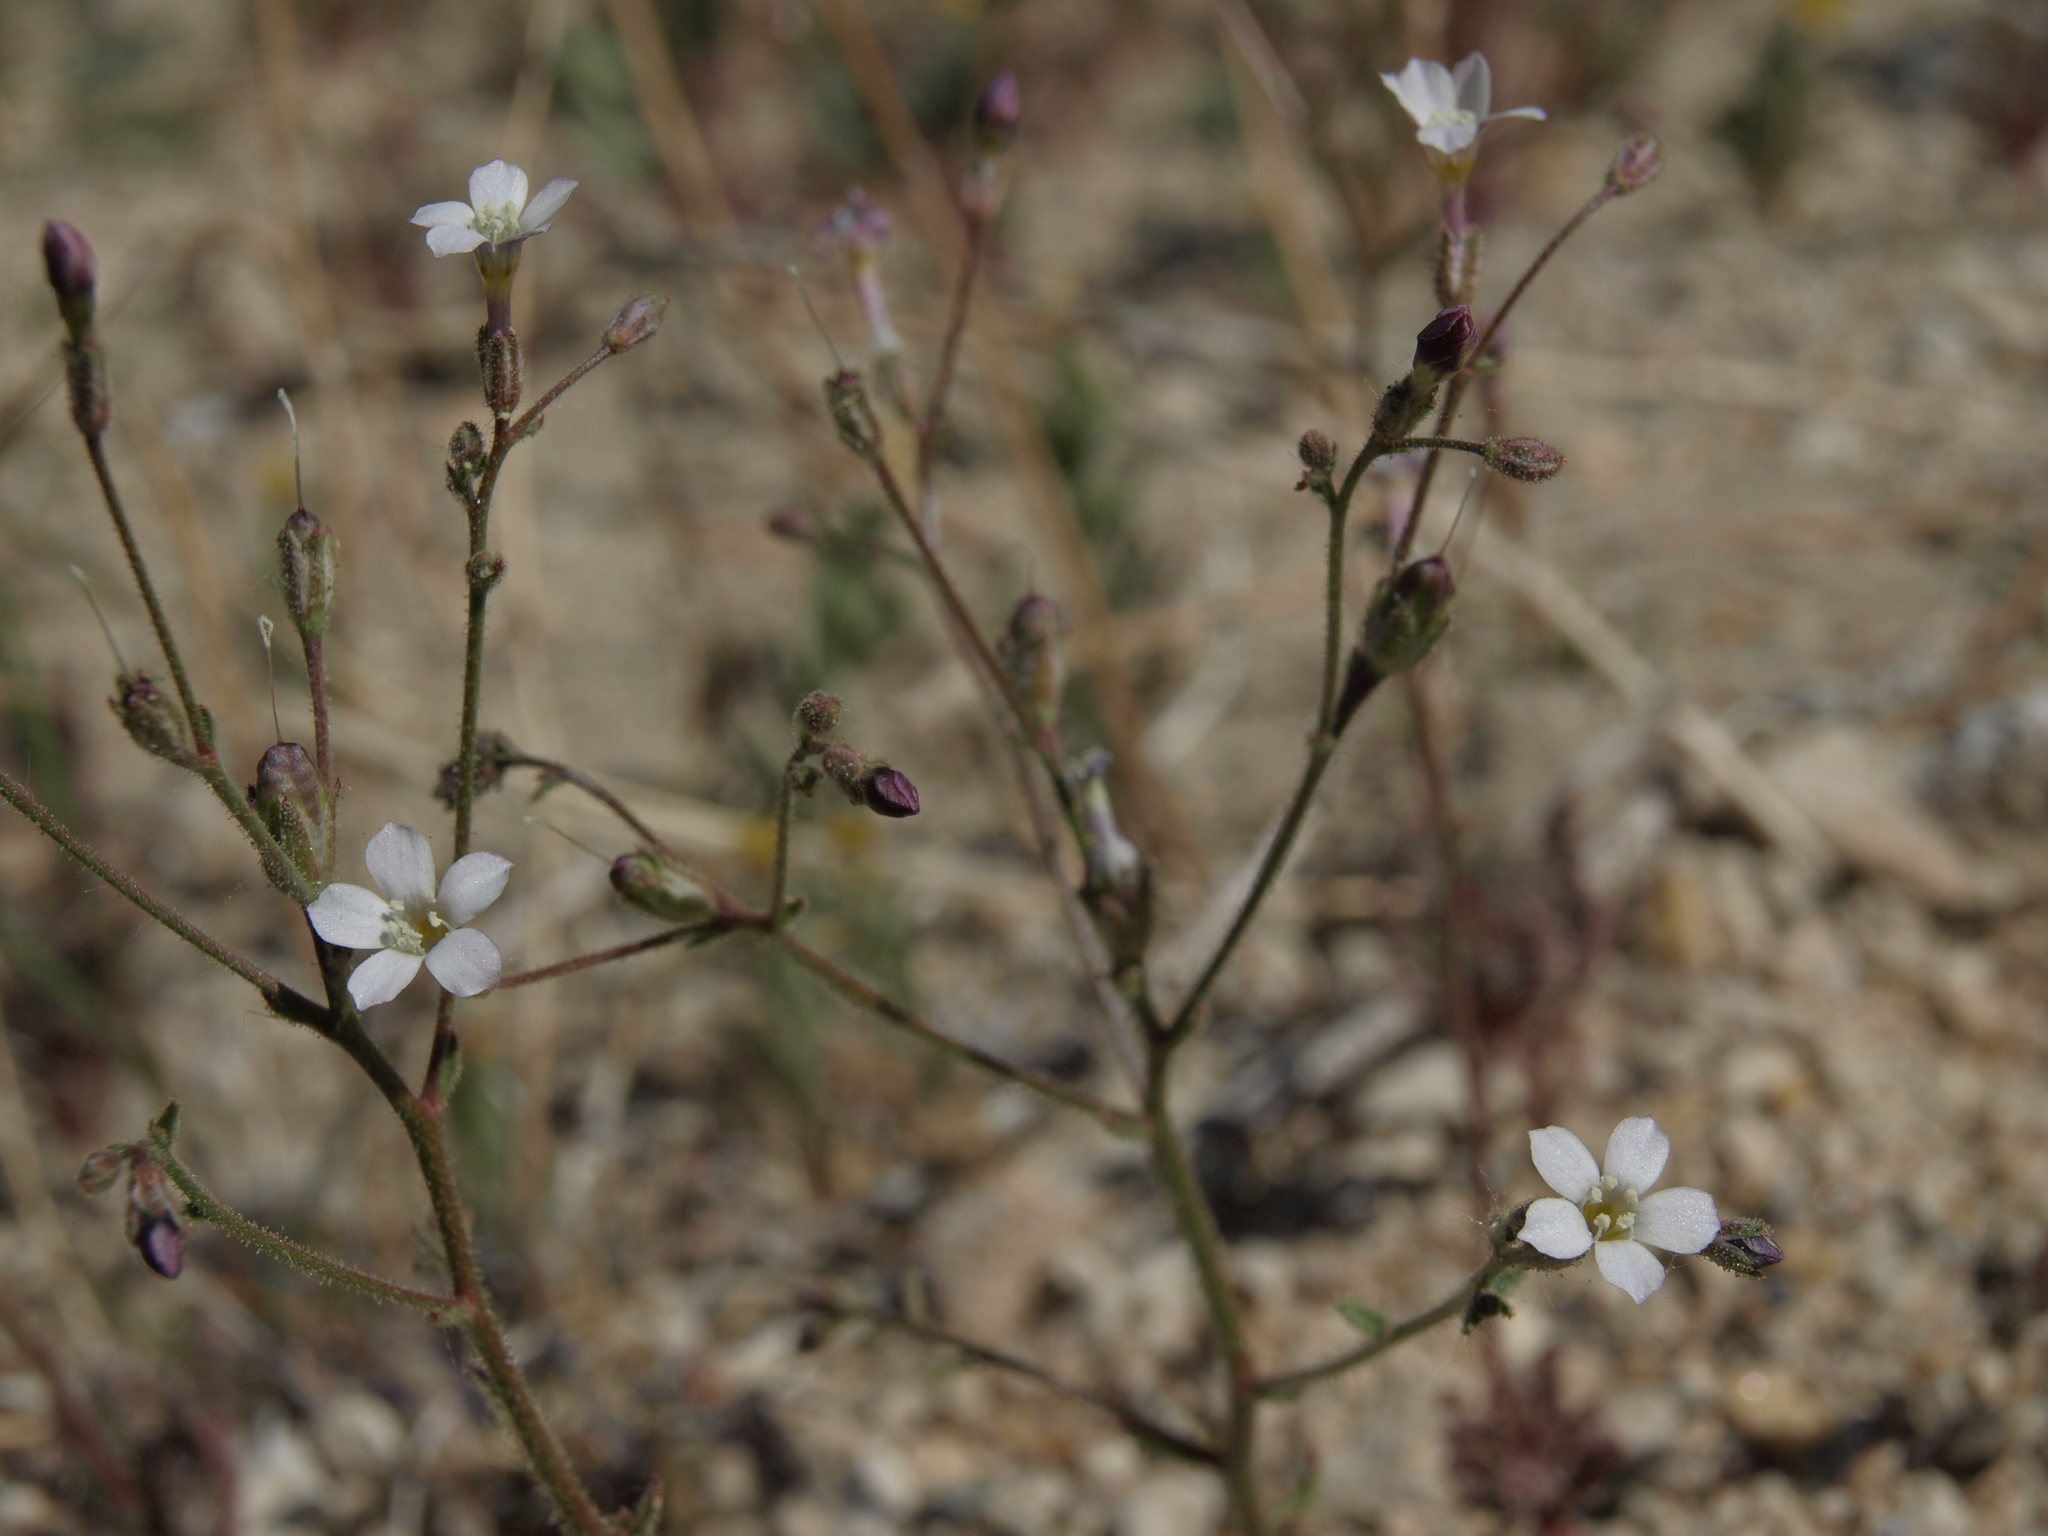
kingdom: Plantae
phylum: Tracheophyta
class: Magnoliopsida
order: Ericales
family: Polemoniaceae
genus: Aliciella
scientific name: Aliciella hutchinsifolia
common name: Desert pale gilia
